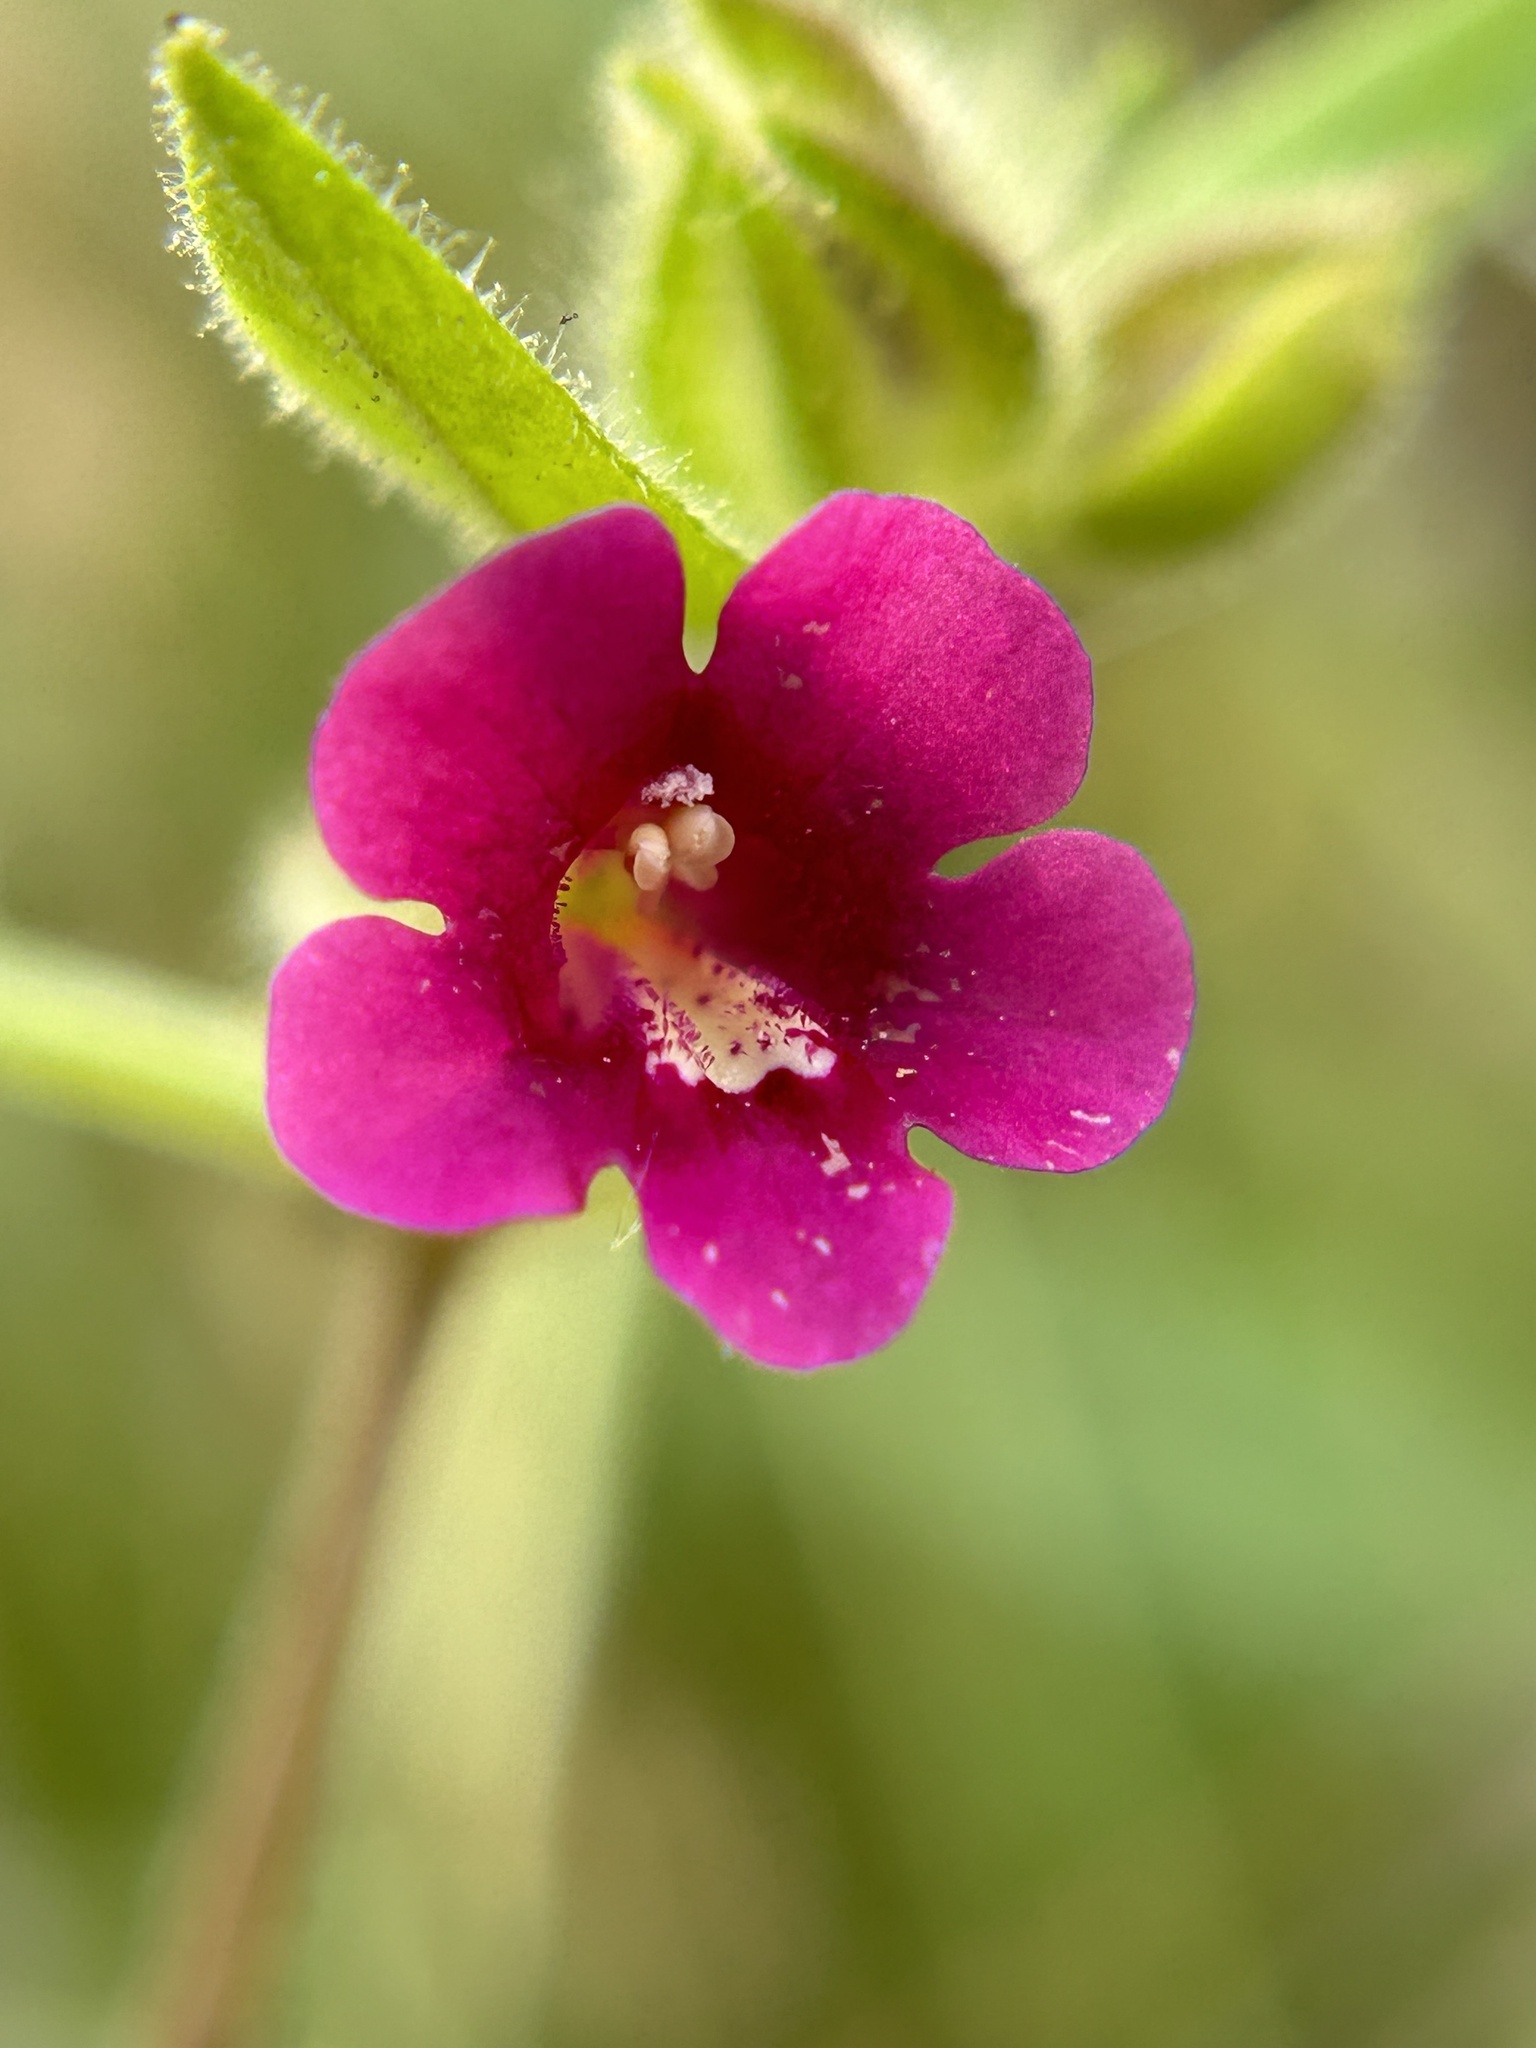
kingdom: Plantae
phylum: Tracheophyta
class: Magnoliopsida
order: Lamiales
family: Phrymaceae
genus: Diplacus
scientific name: Diplacus bolanderi
